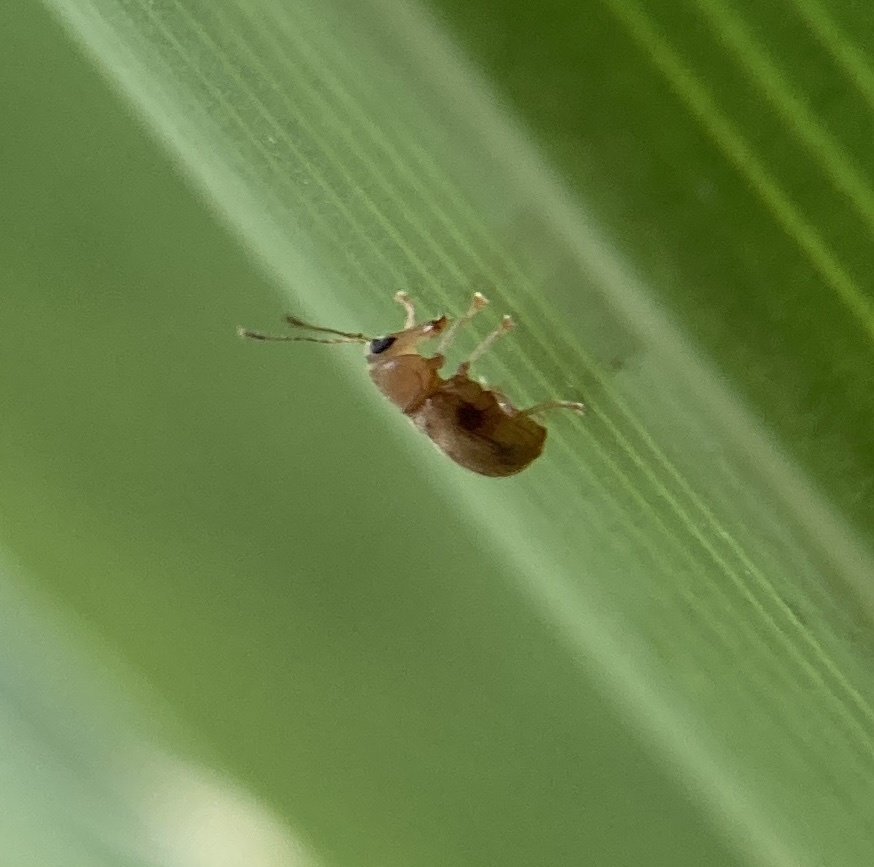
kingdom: Animalia
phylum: Arthropoda
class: Insecta
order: Coleoptera
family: Anthribidae
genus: Jordanthribus
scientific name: Jordanthribus planifacietus
